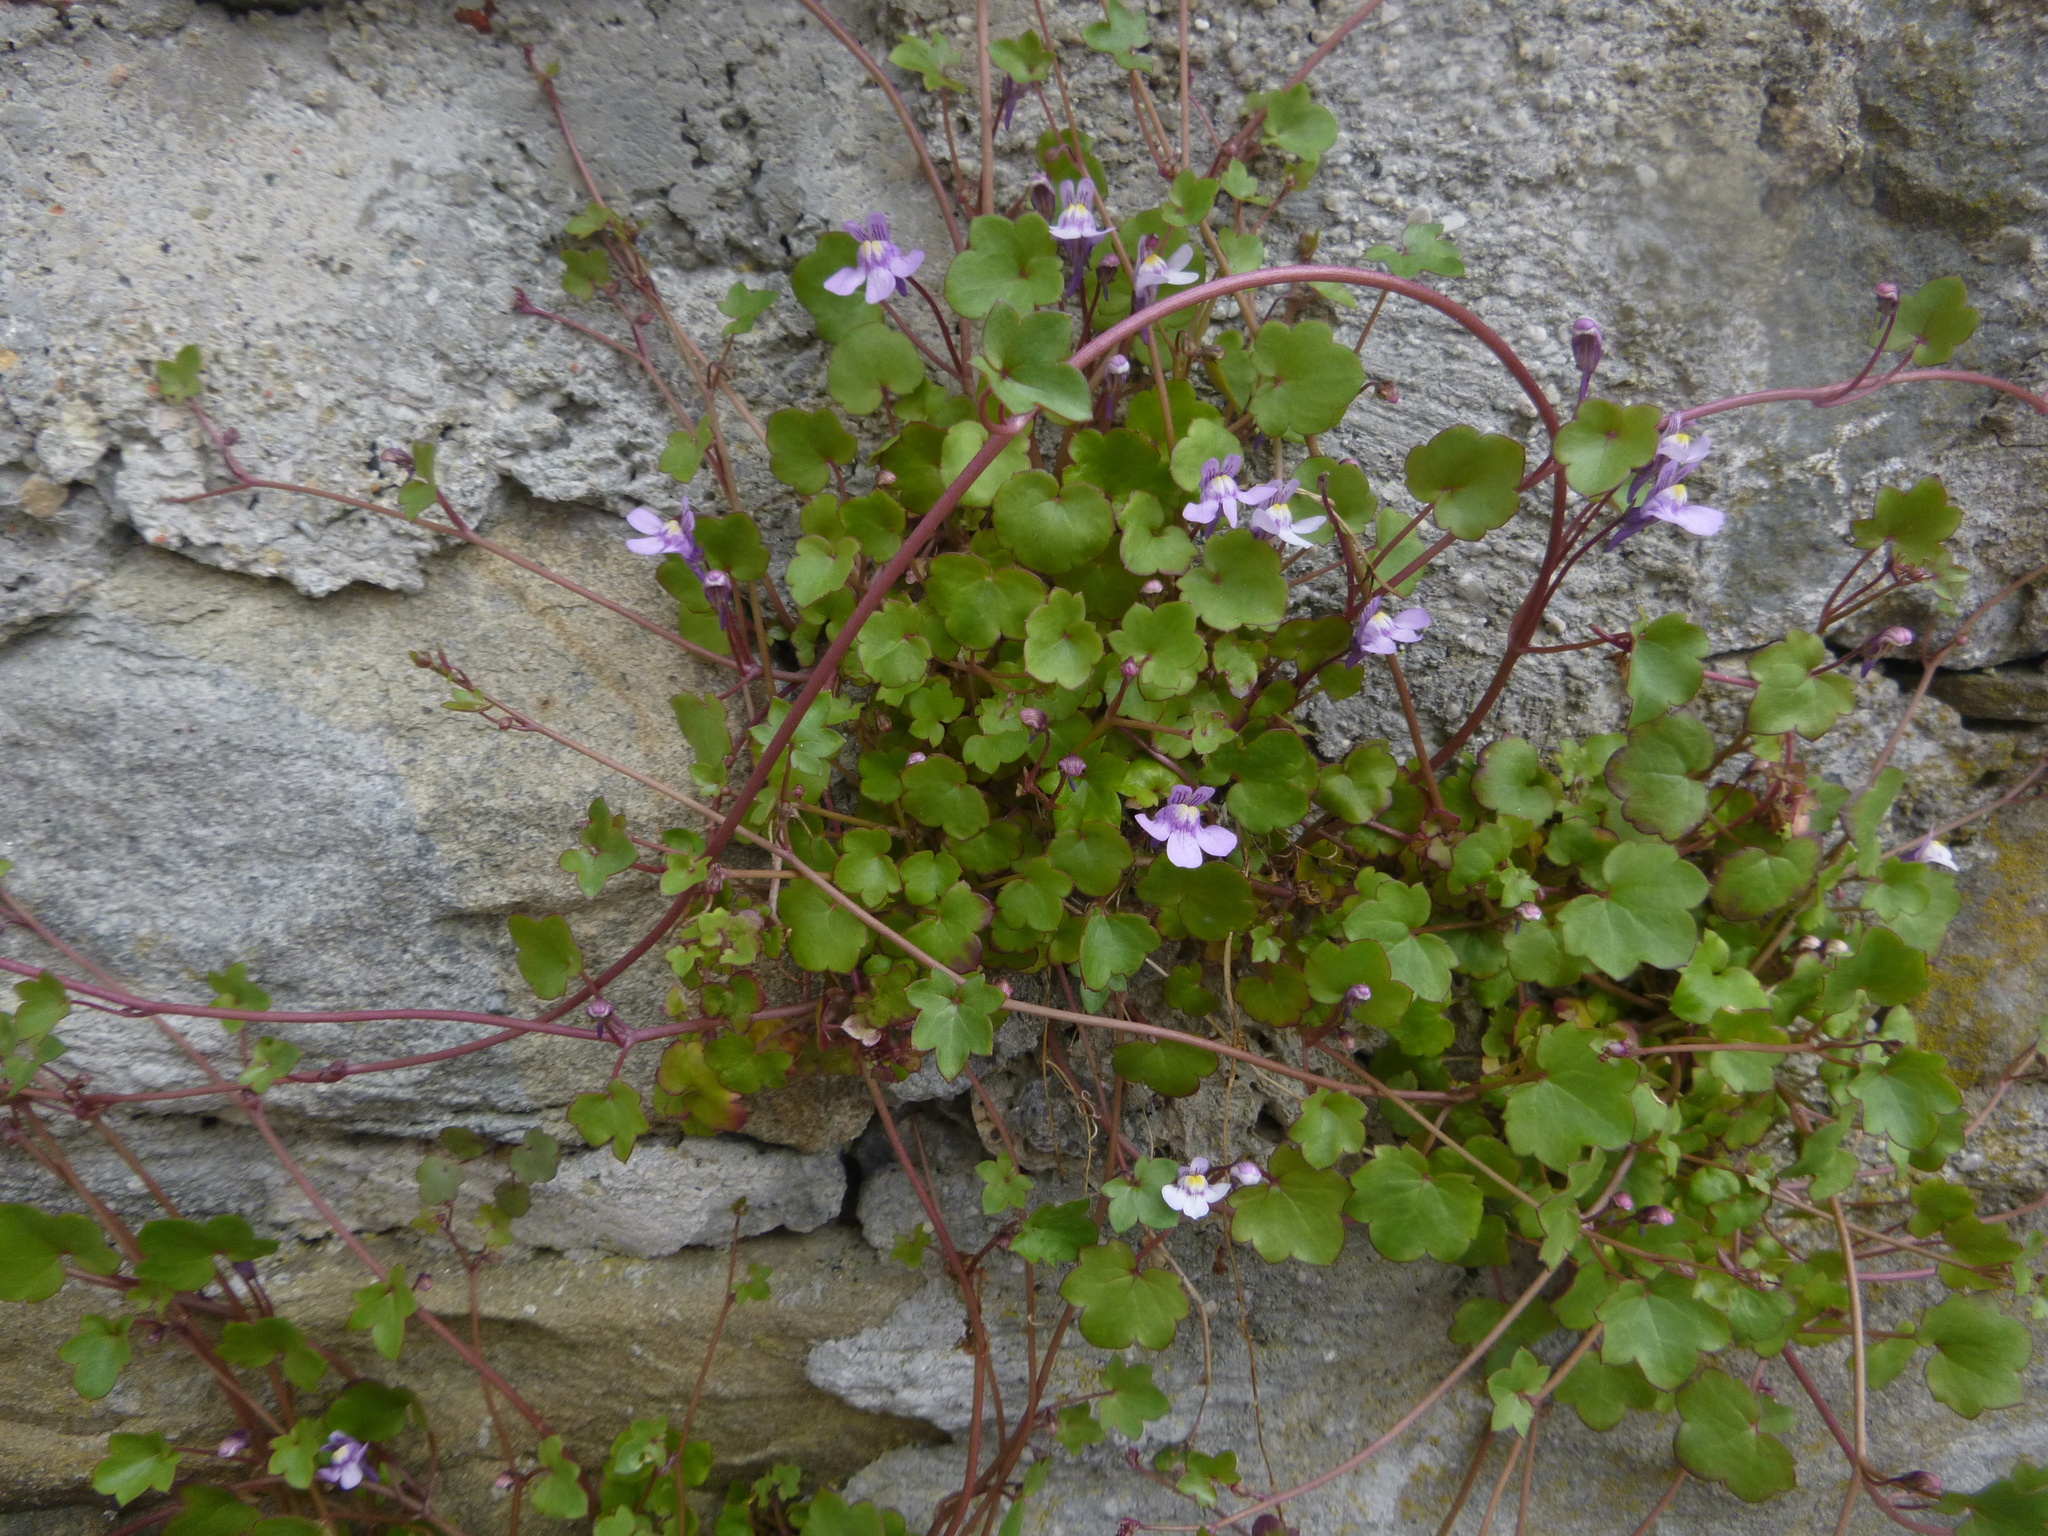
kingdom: Plantae
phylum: Tracheophyta
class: Magnoliopsida
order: Lamiales
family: Plantaginaceae
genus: Cymbalaria
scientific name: Cymbalaria muralis
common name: Ivy-leaved toadflax
